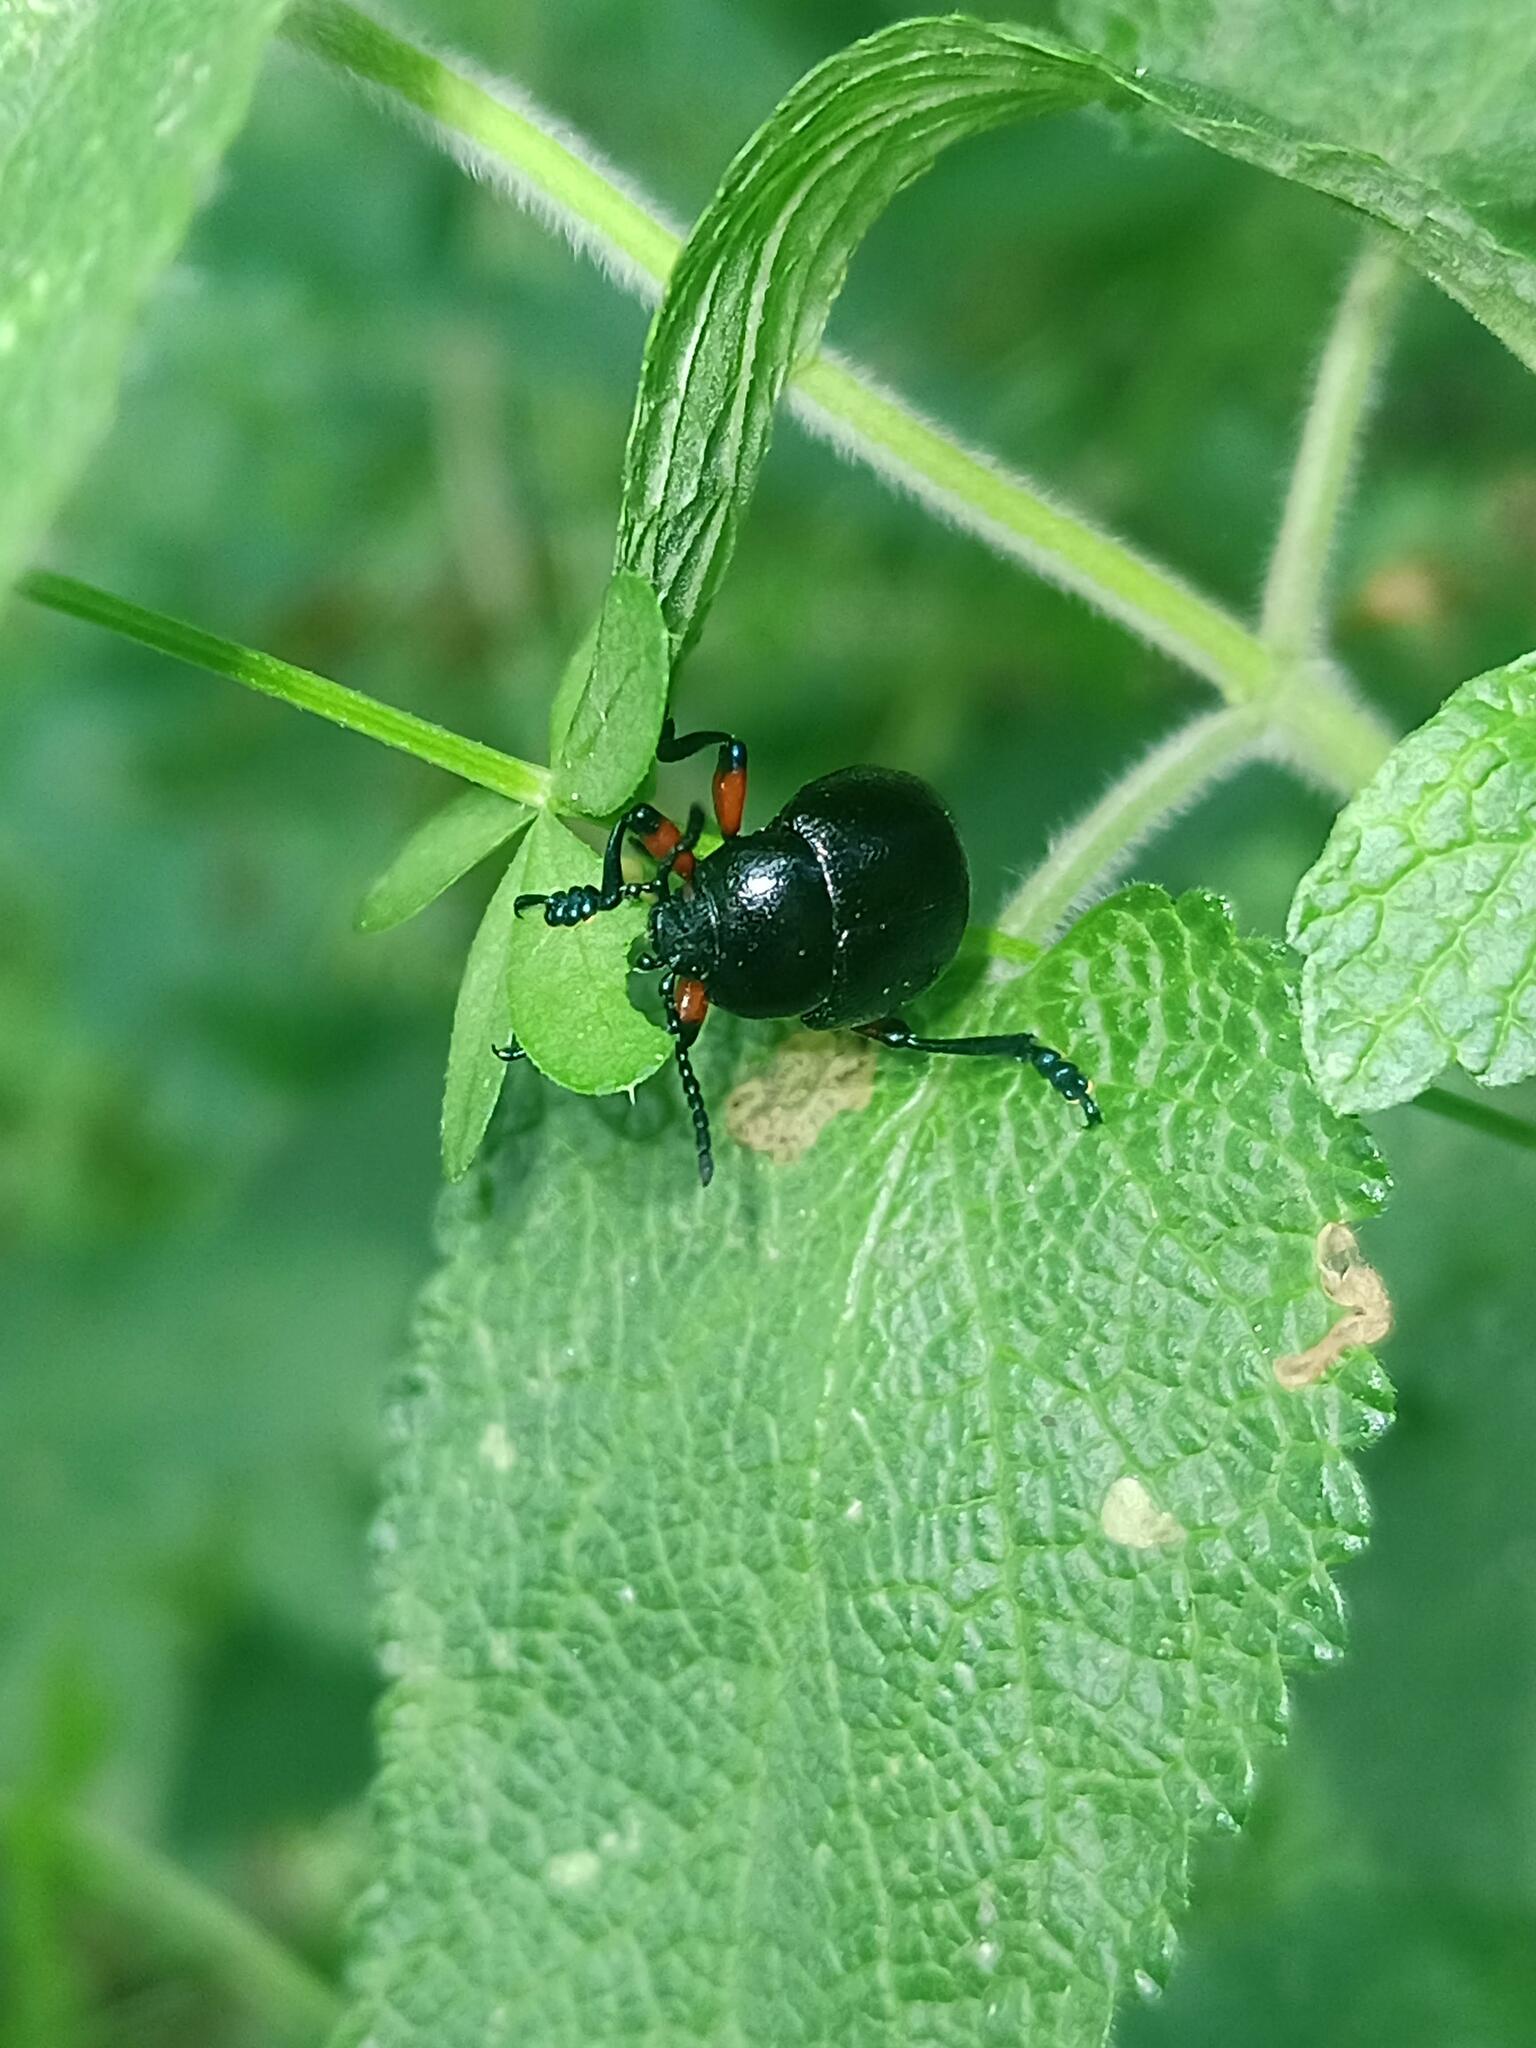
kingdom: Animalia
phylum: Arthropoda
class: Insecta
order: Coleoptera
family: Chrysomelidae
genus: Timarcha
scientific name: Timarcha gougeleti
